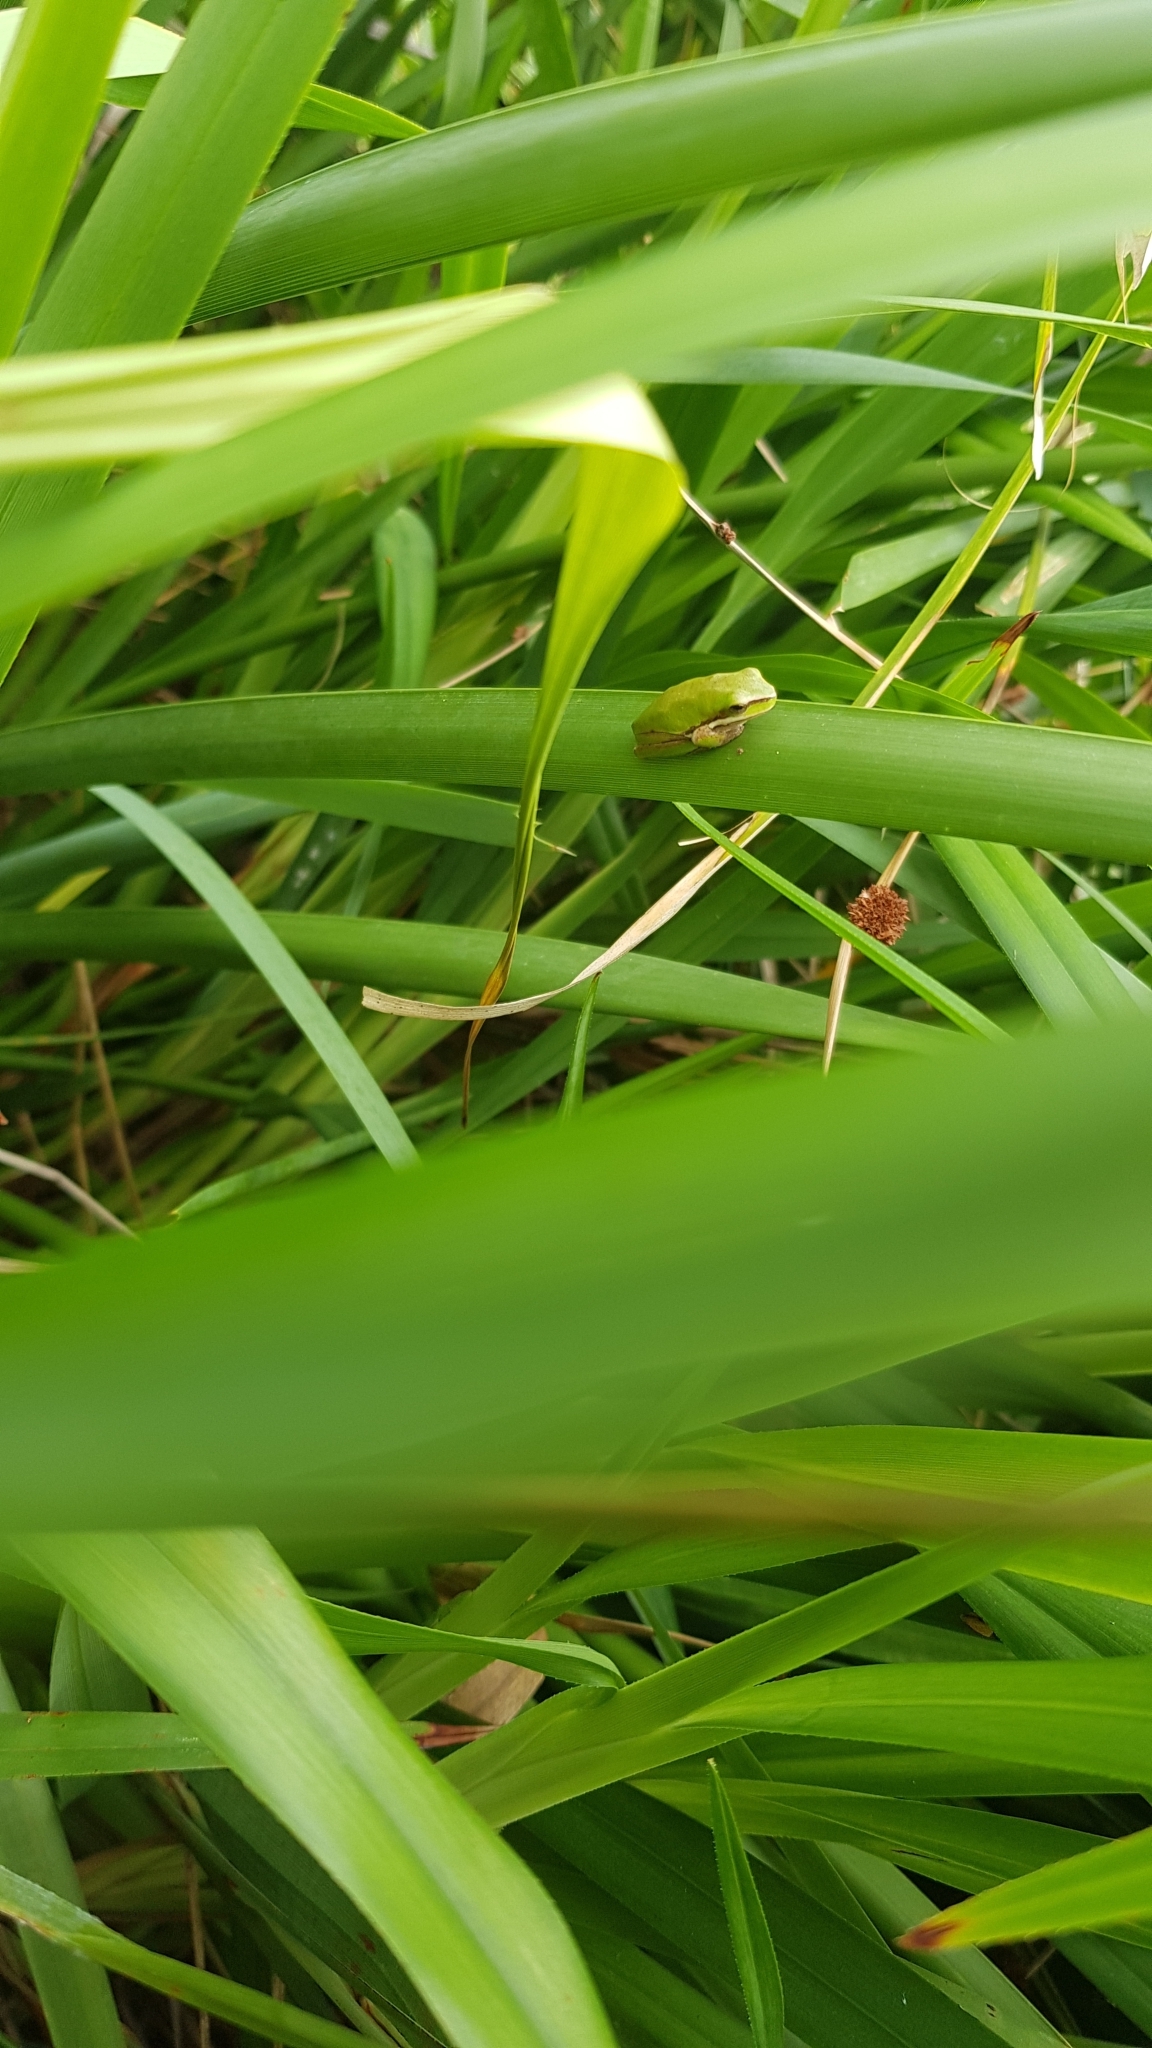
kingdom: Animalia
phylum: Chordata
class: Amphibia
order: Anura
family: Pelodryadidae
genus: Litoria
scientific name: Litoria fallax
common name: Eastern dwarf treefrog
